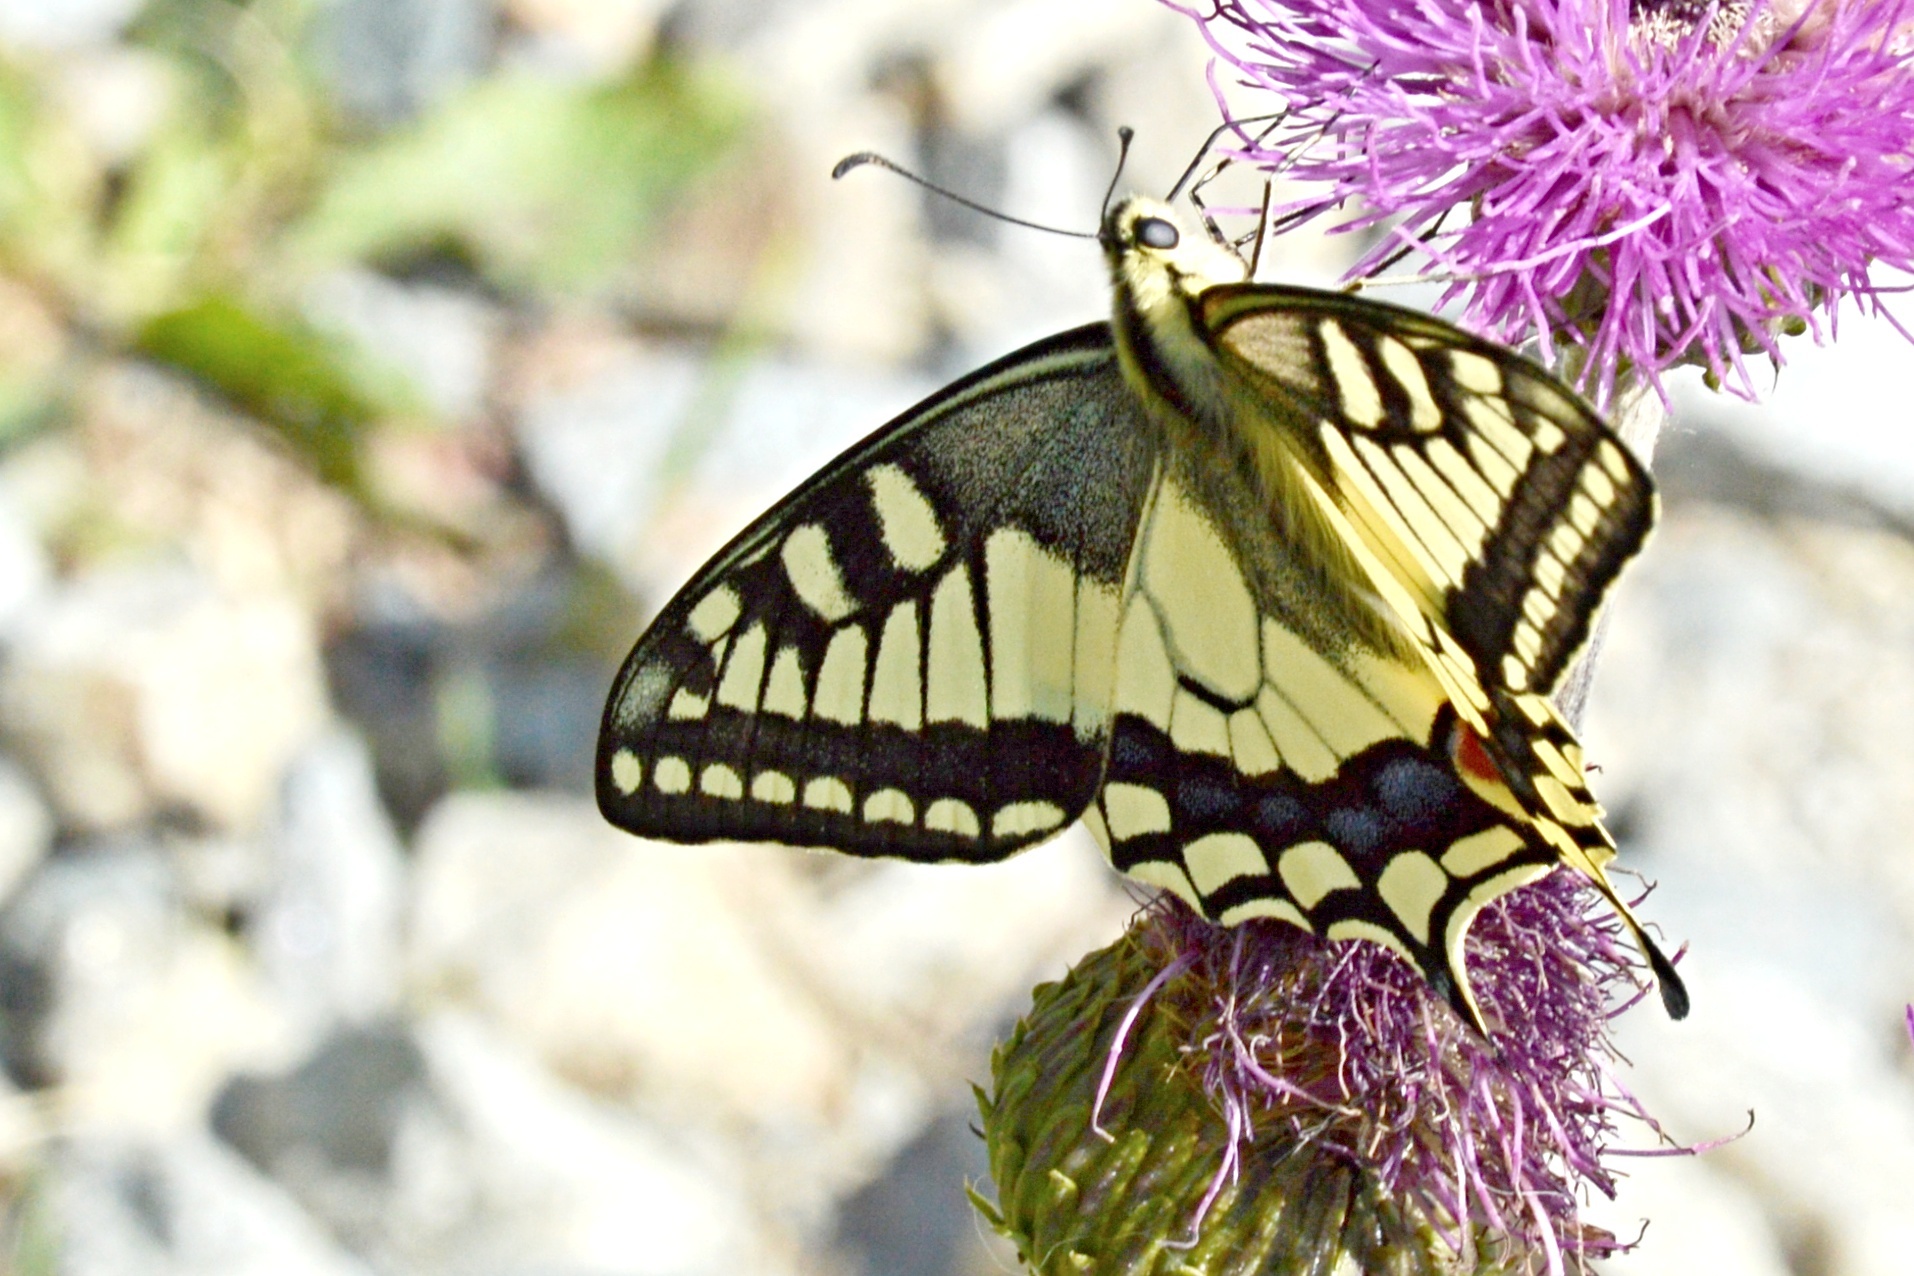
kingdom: Animalia
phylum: Arthropoda
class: Insecta
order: Lepidoptera
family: Papilionidae
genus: Papilio
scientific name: Papilio machaon
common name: Swallowtail
